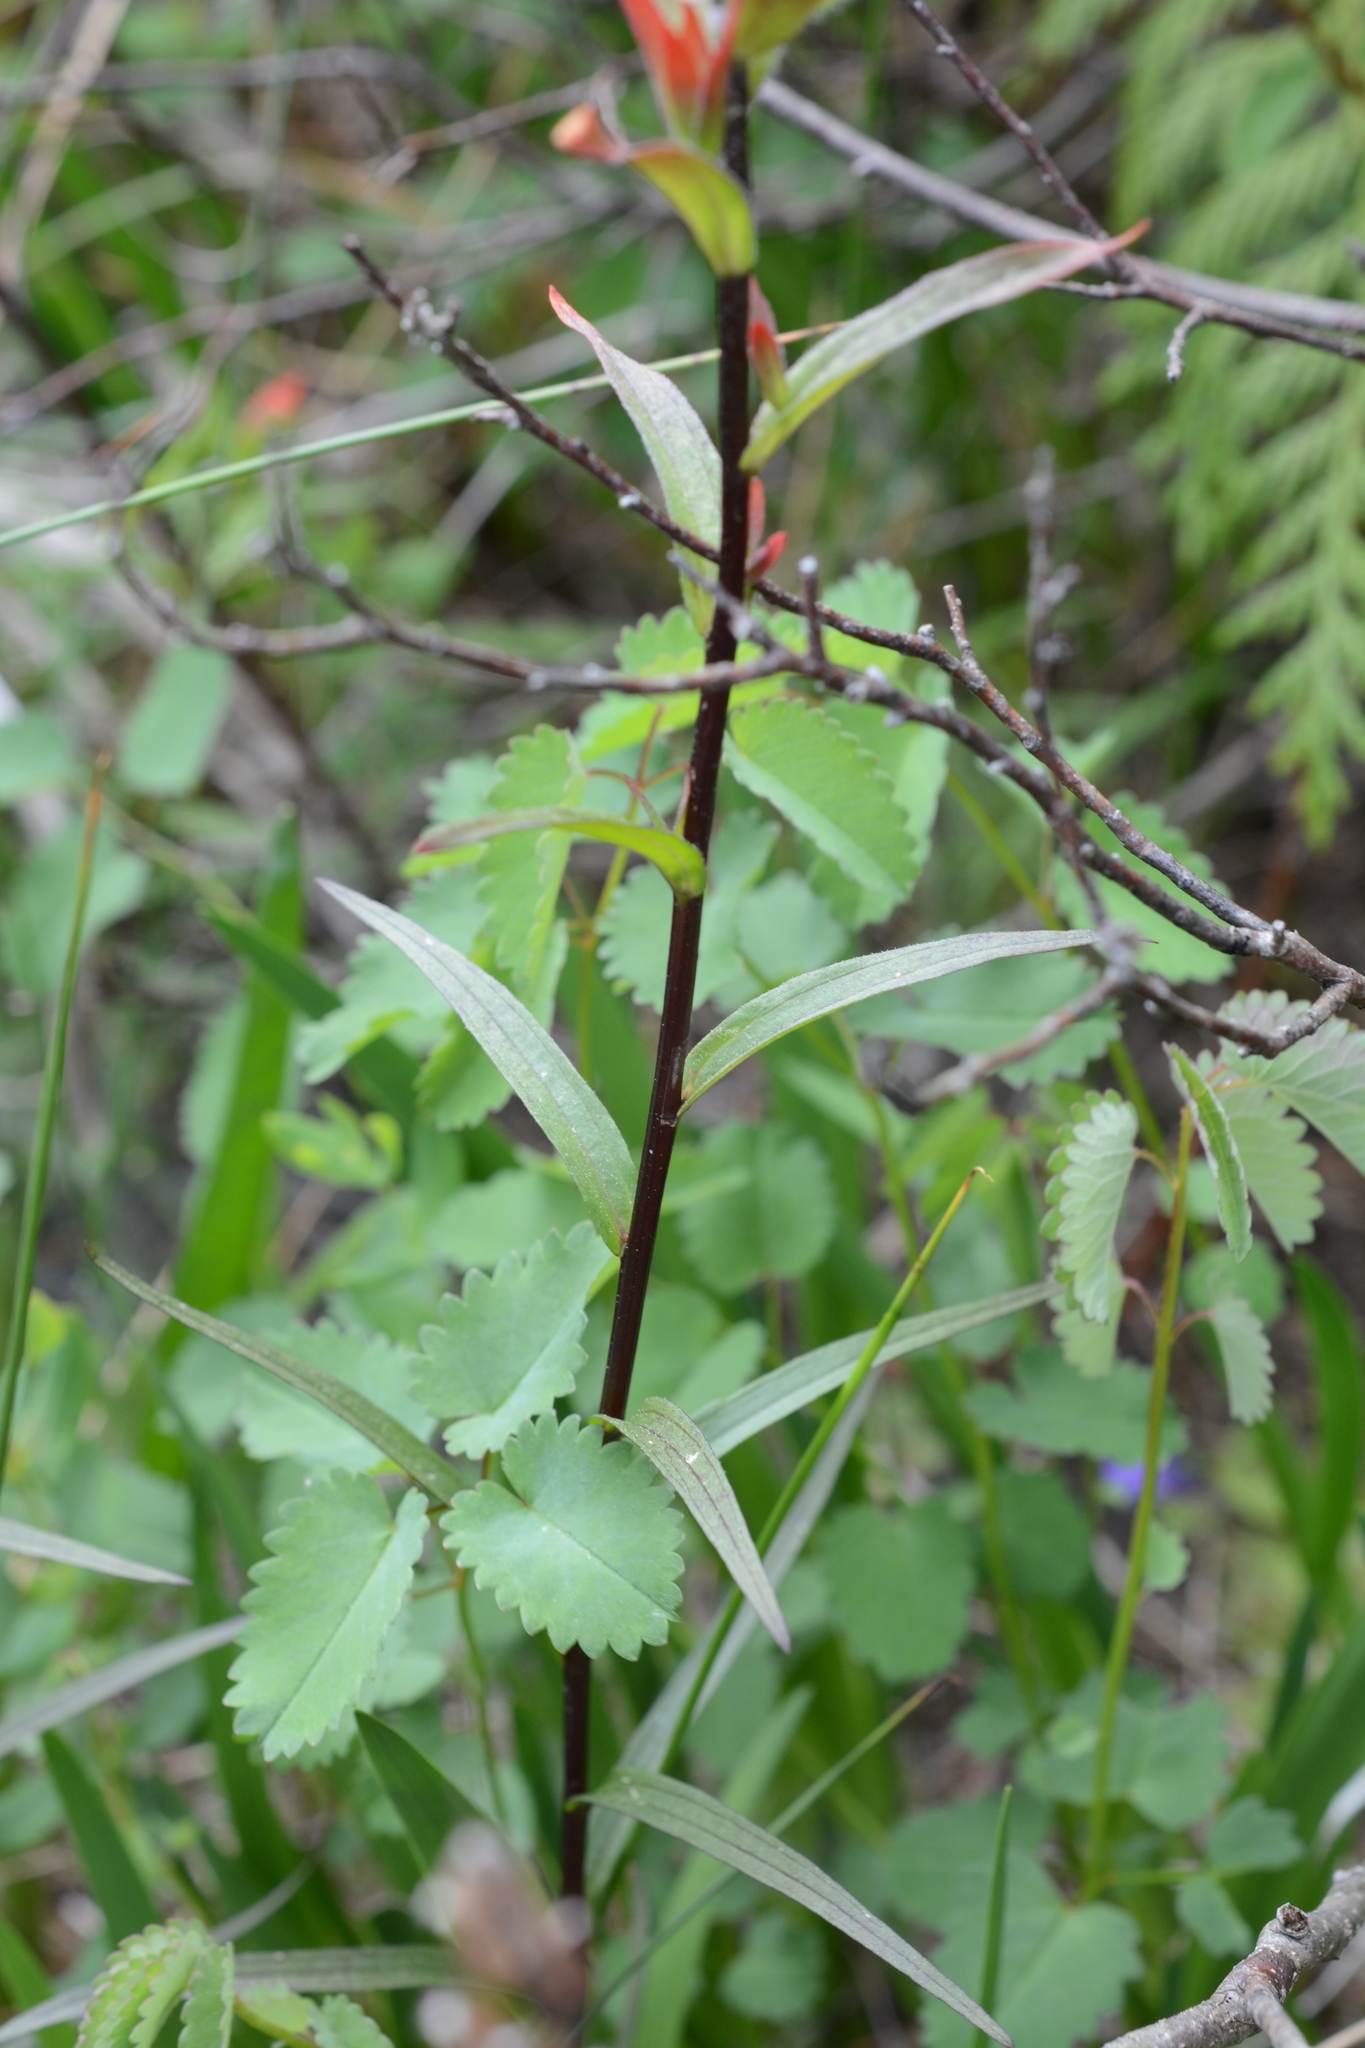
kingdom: Plantae
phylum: Tracheophyta
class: Magnoliopsida
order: Lamiales
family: Orobanchaceae
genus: Castilleja
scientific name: Castilleja miniata
